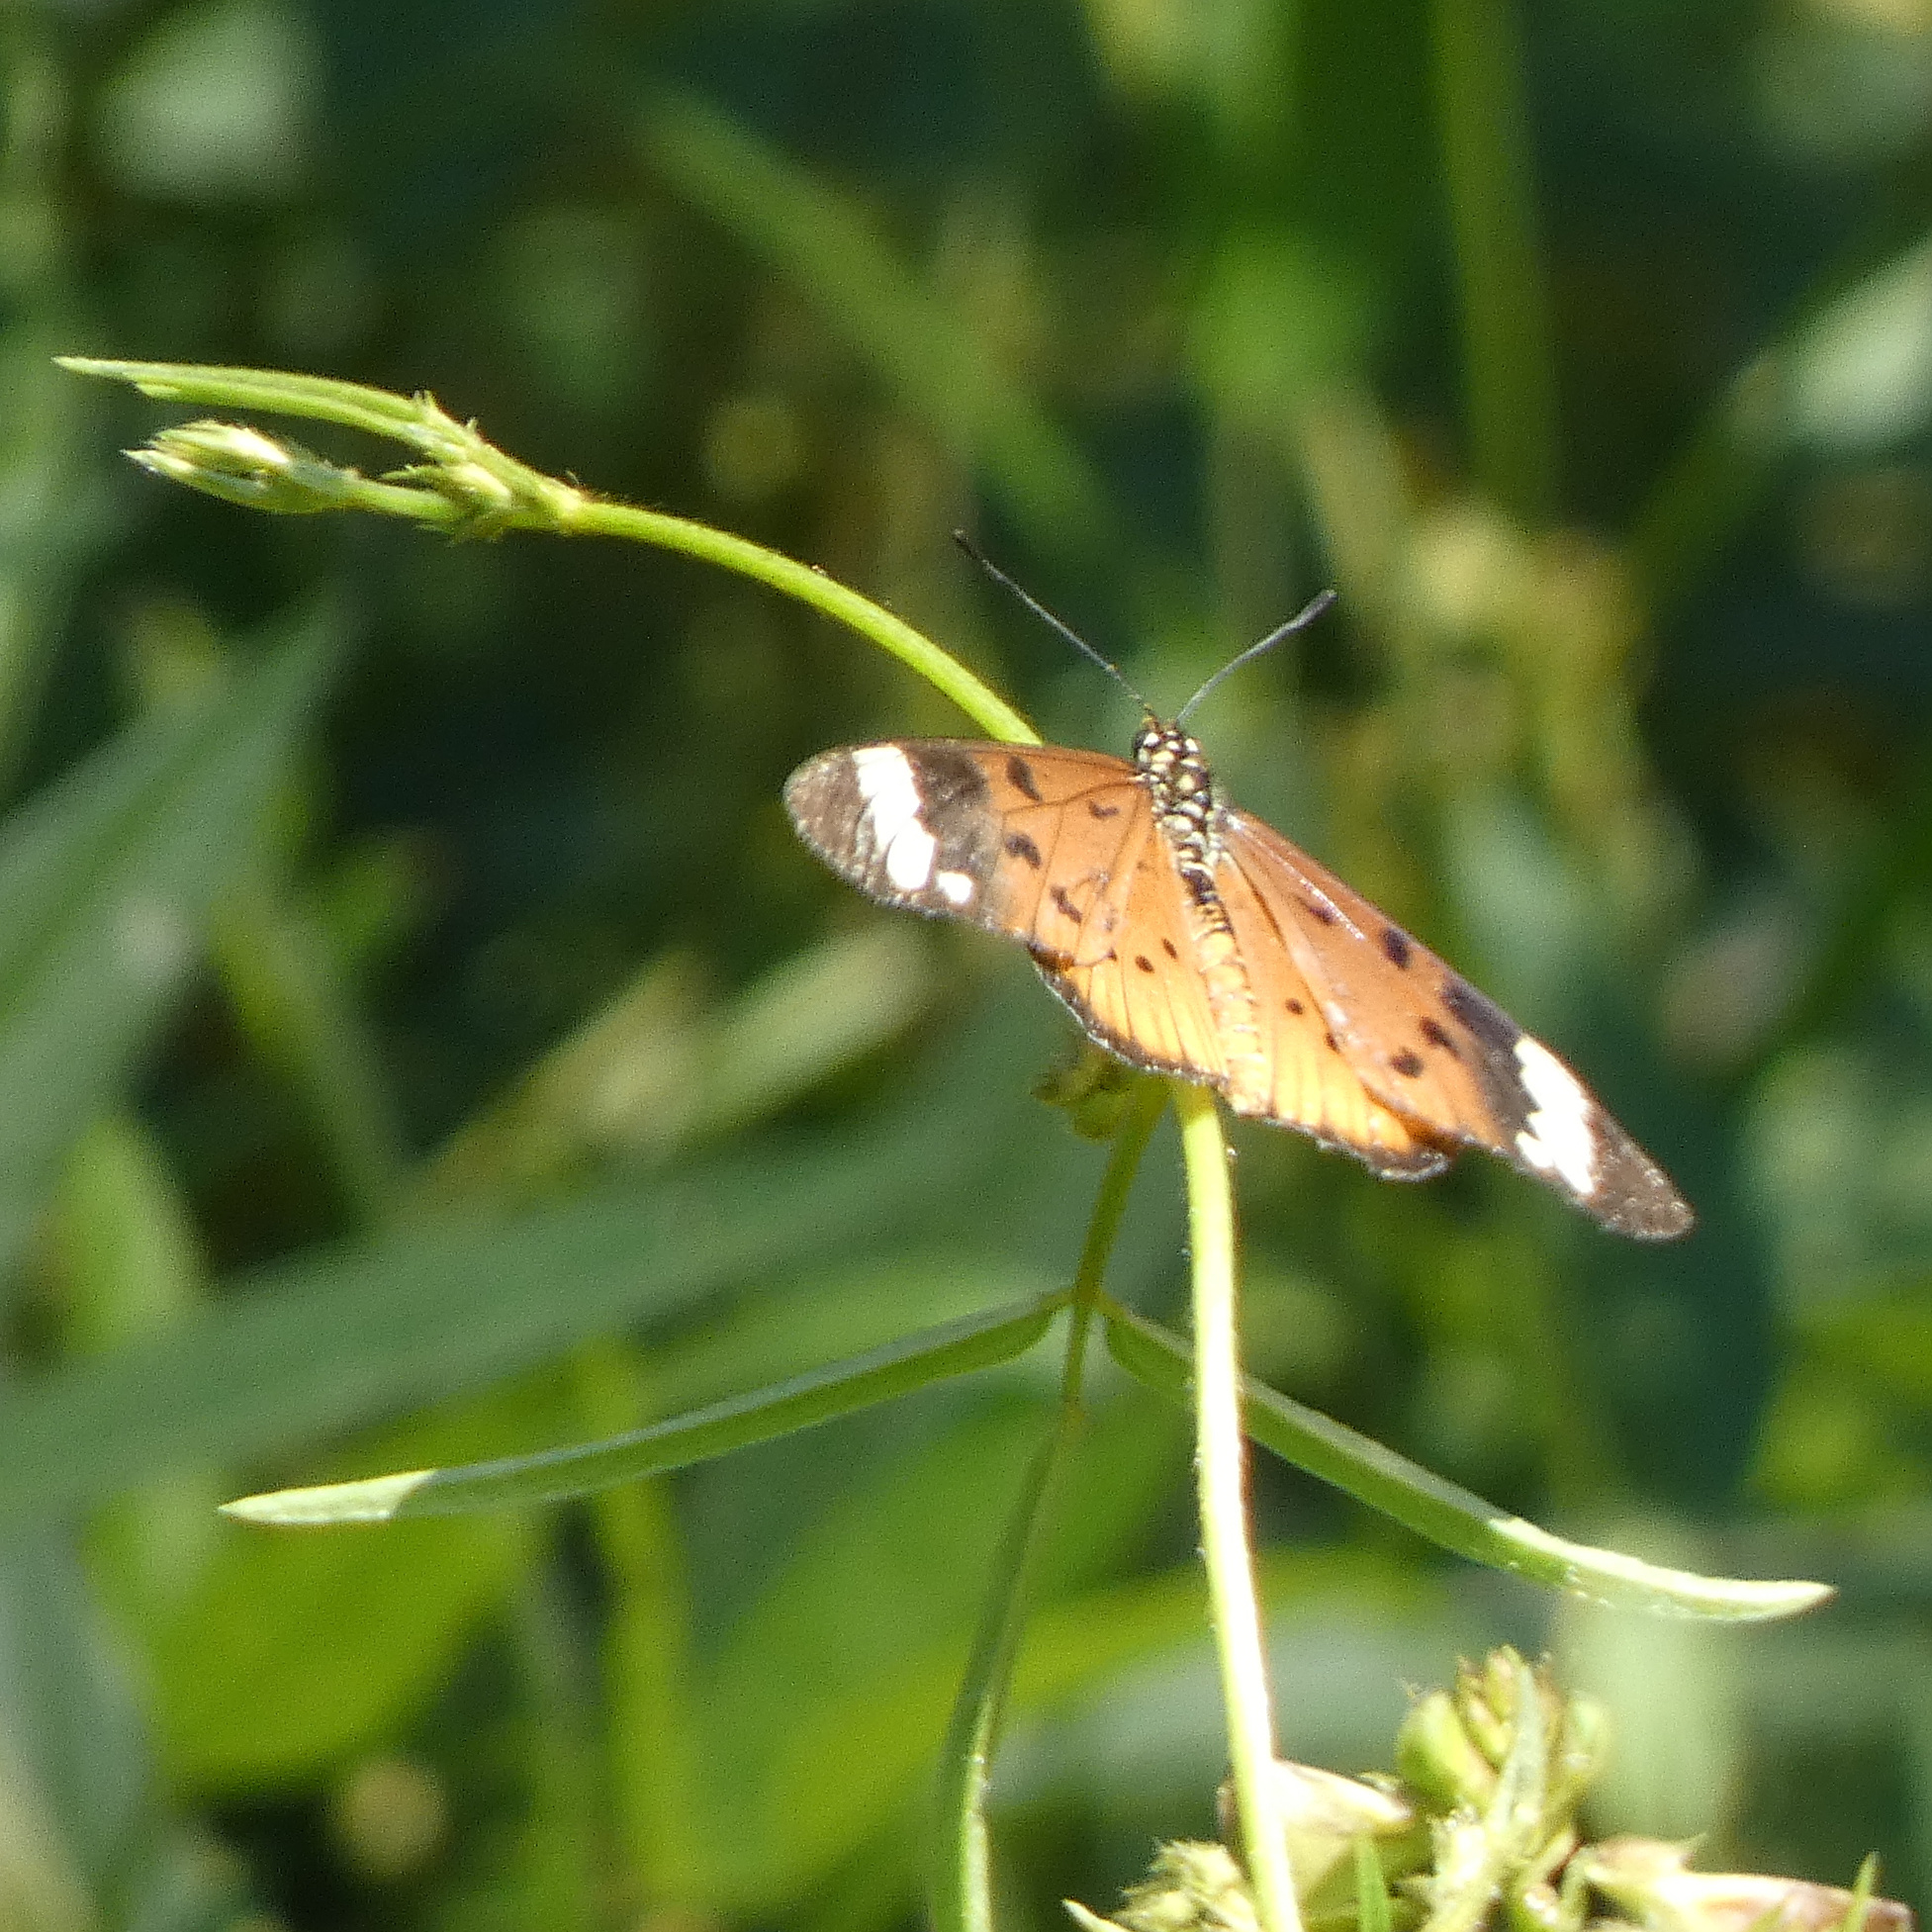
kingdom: Animalia
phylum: Arthropoda
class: Insecta
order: Lepidoptera
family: Nymphalidae
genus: Acraea
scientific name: Acraea Telchinia encedon
